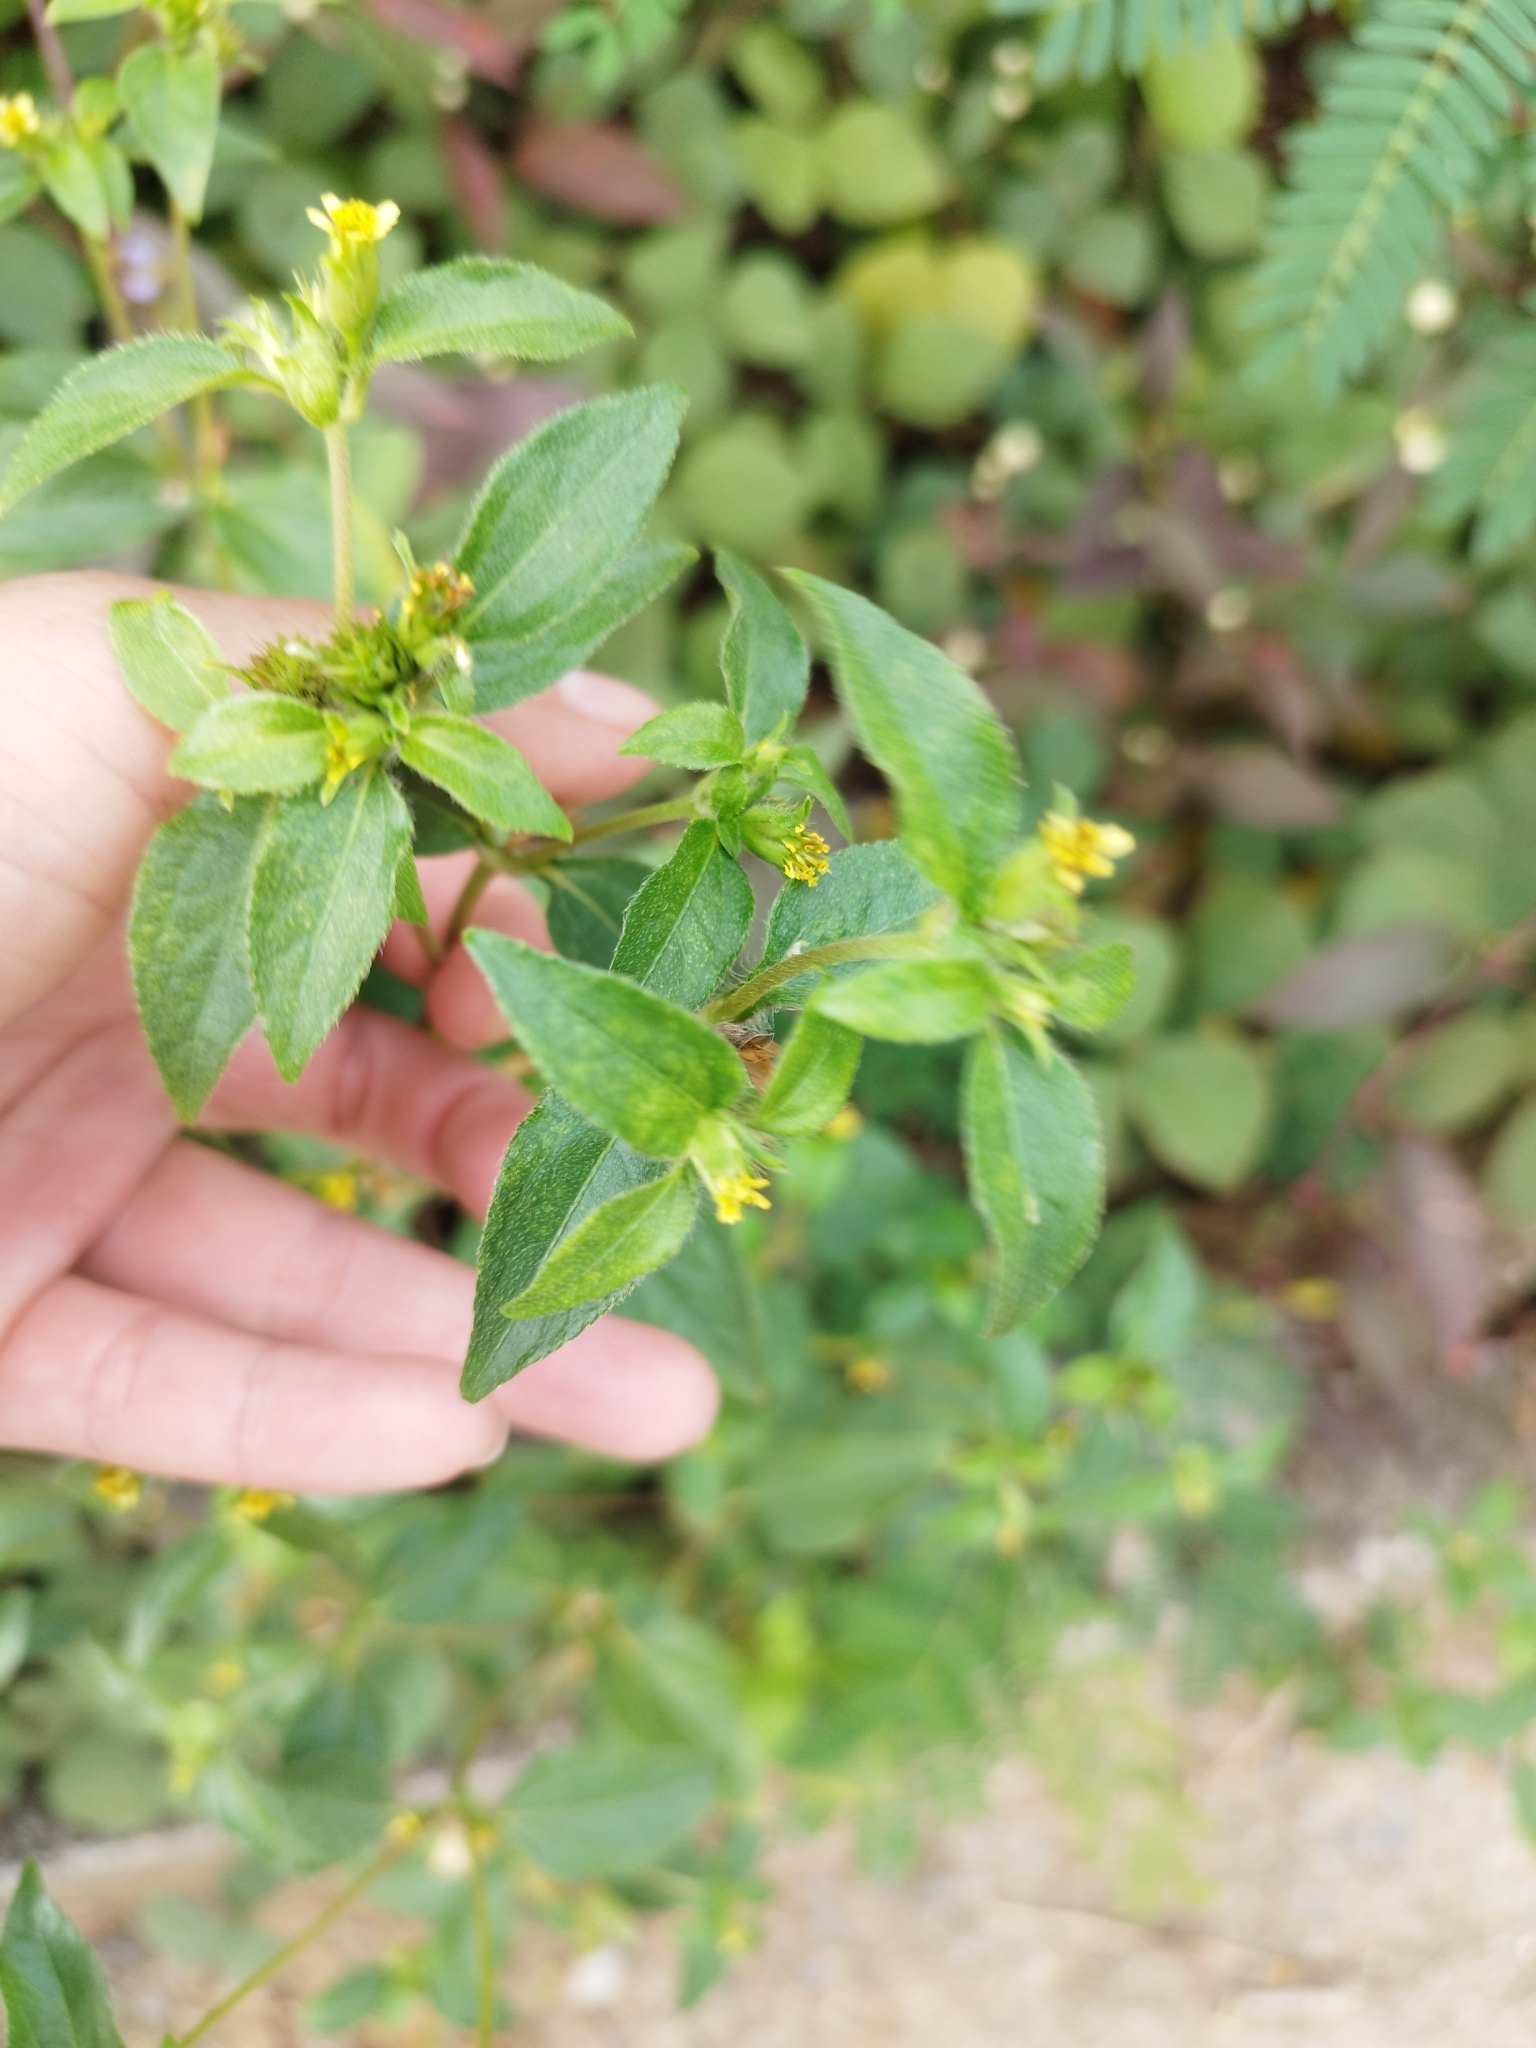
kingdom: Plantae
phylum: Tracheophyta
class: Magnoliopsida
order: Asterales
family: Asteraceae
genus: Synedrella
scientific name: Synedrella nodiflora
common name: Nodeweed
